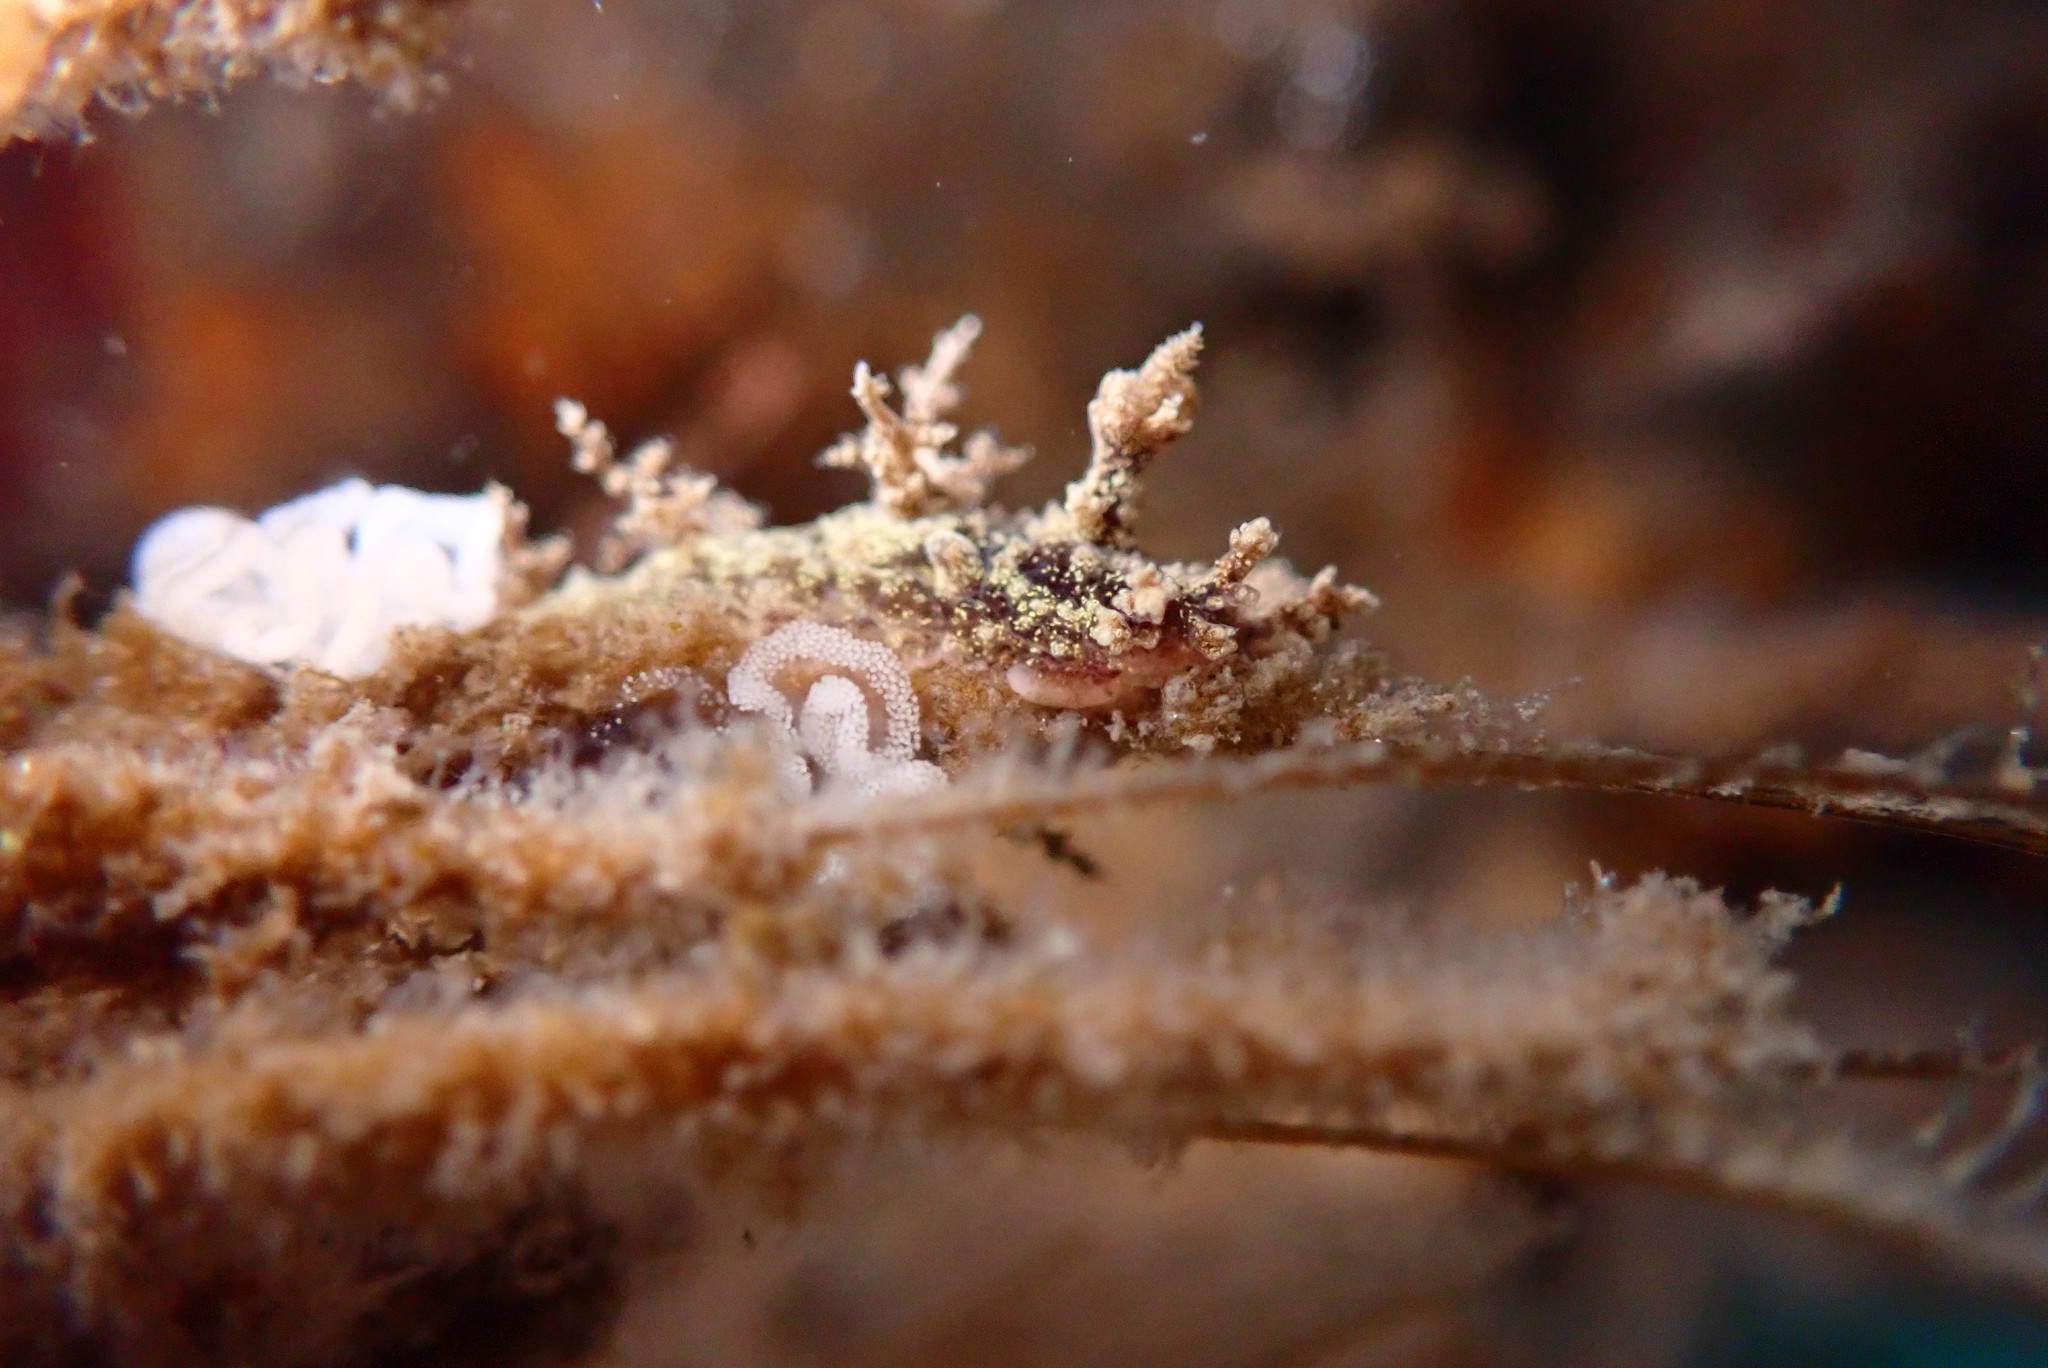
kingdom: Animalia
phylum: Mollusca
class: Gastropoda
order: Nudibranchia
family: Dendronotidae
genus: Dendronotus
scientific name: Dendronotus venustus
